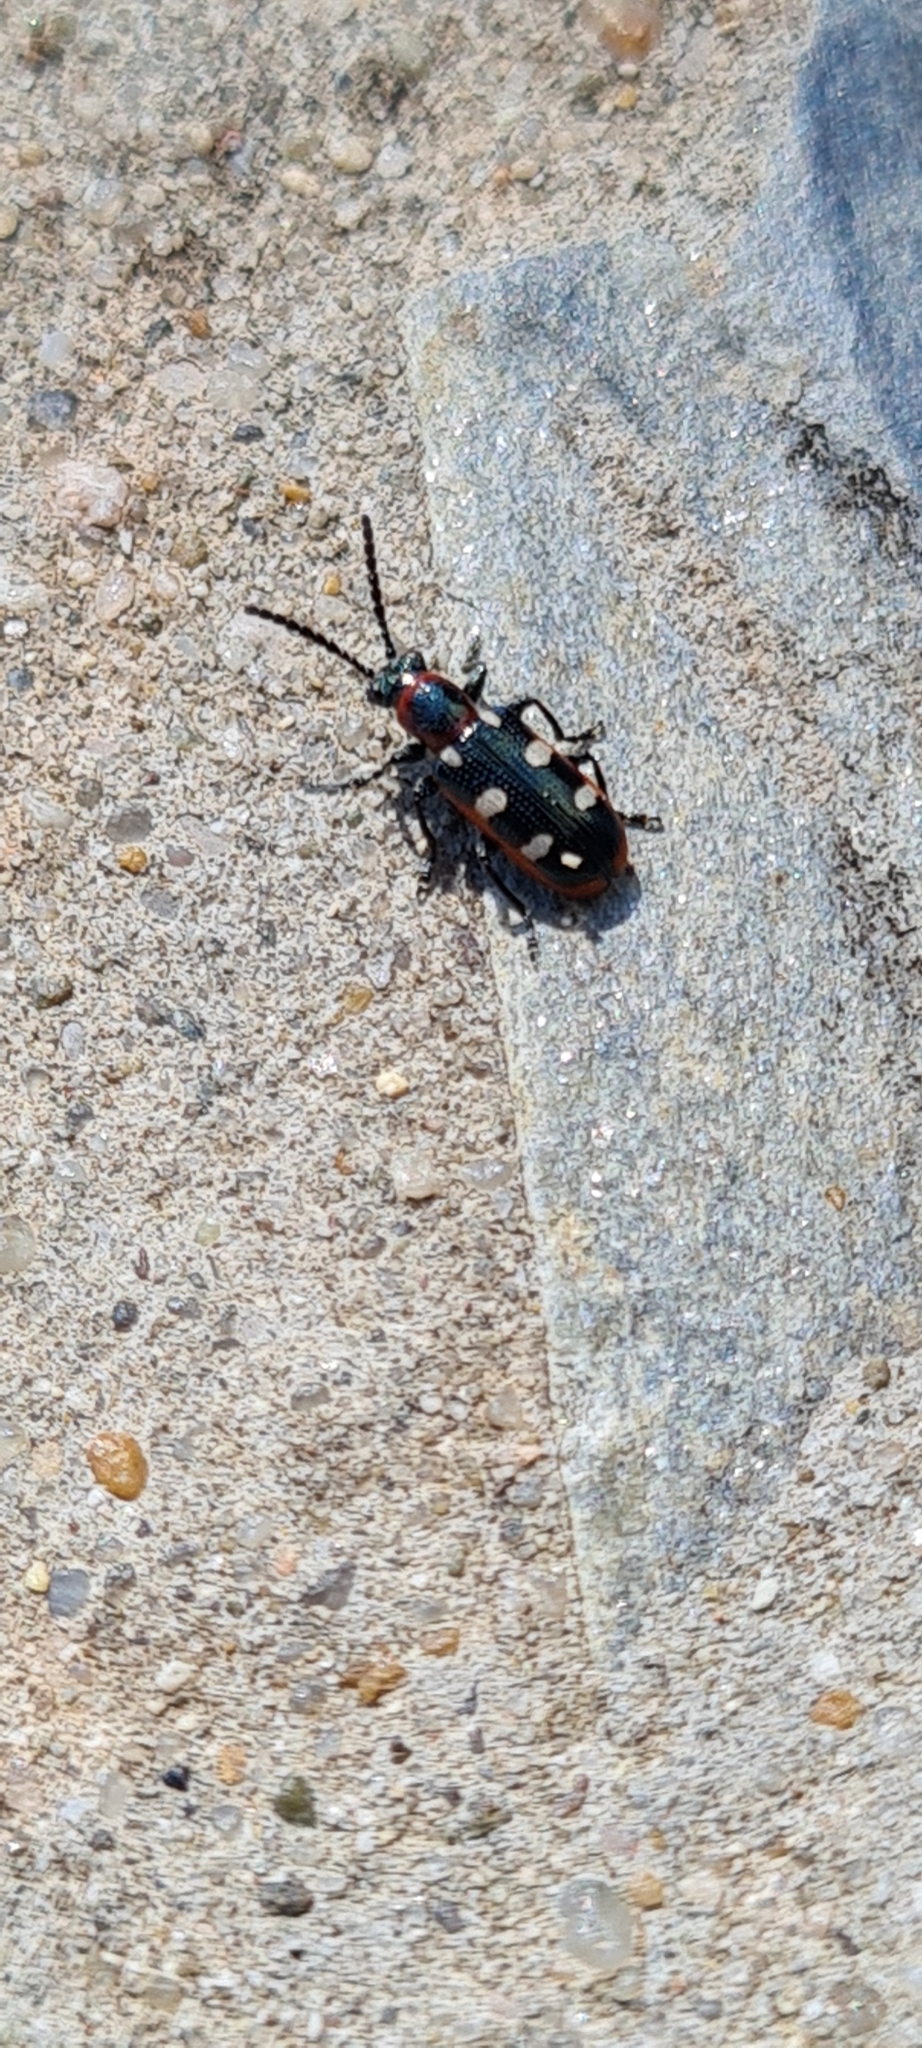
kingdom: Animalia
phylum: Arthropoda
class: Insecta
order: Coleoptera
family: Chrysomelidae
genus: Crioceris
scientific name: Crioceris asparagi
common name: Asparagus beetle
